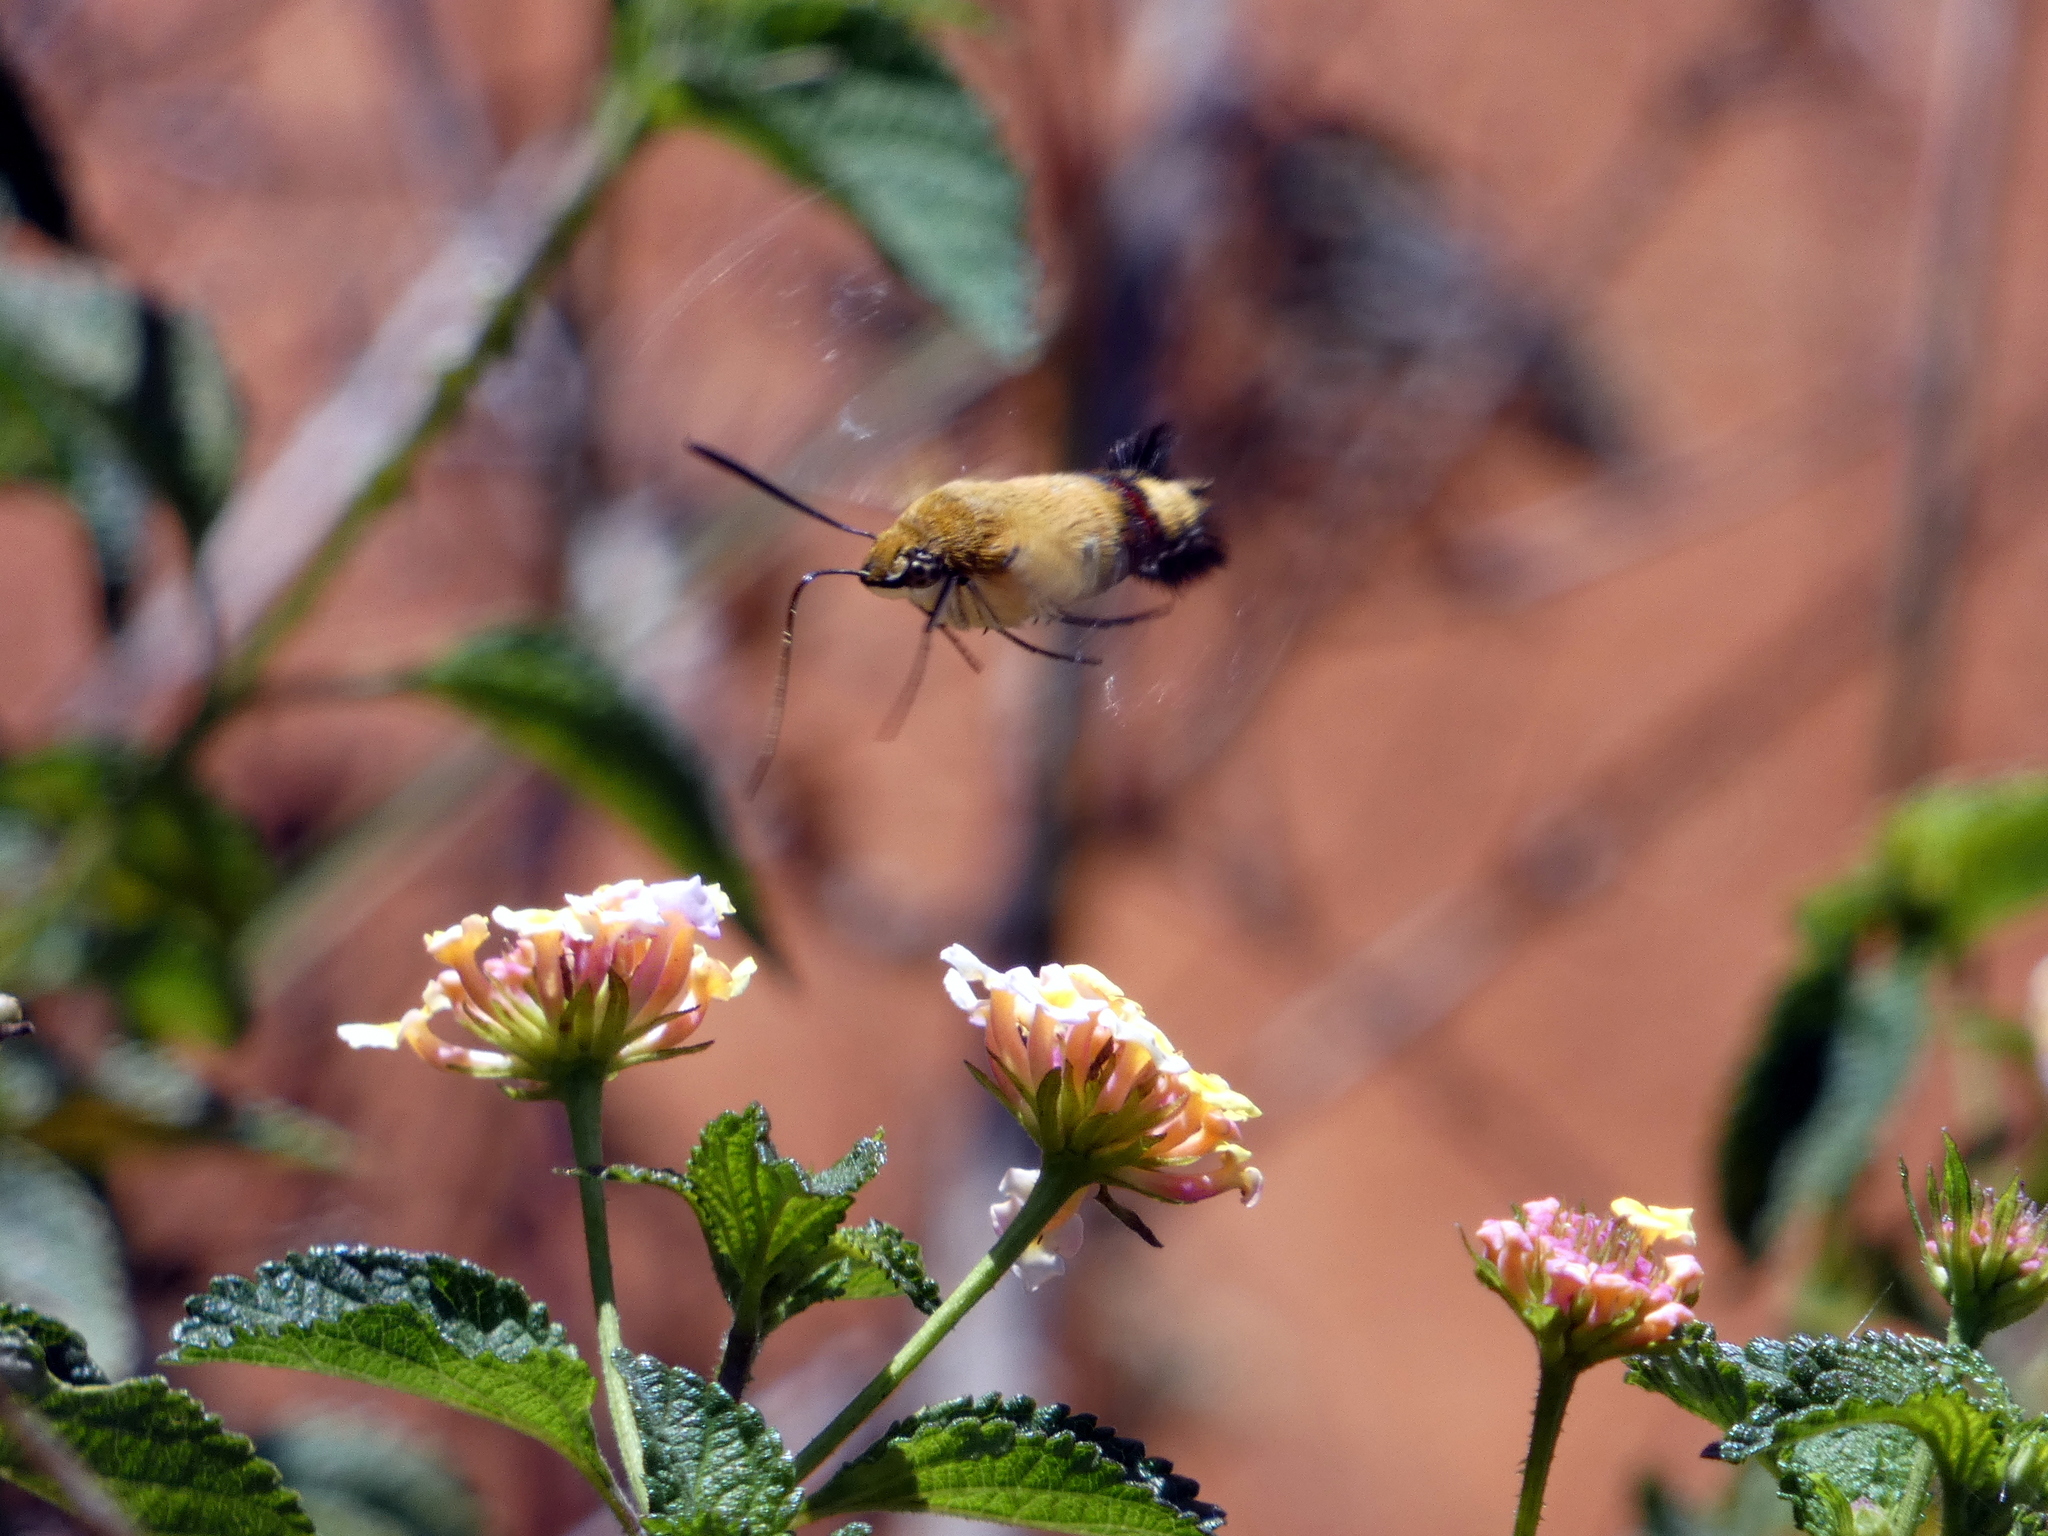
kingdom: Animalia
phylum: Arthropoda
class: Insecta
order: Lepidoptera
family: Sphingidae
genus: Cephonodes
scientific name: Cephonodes hylas
